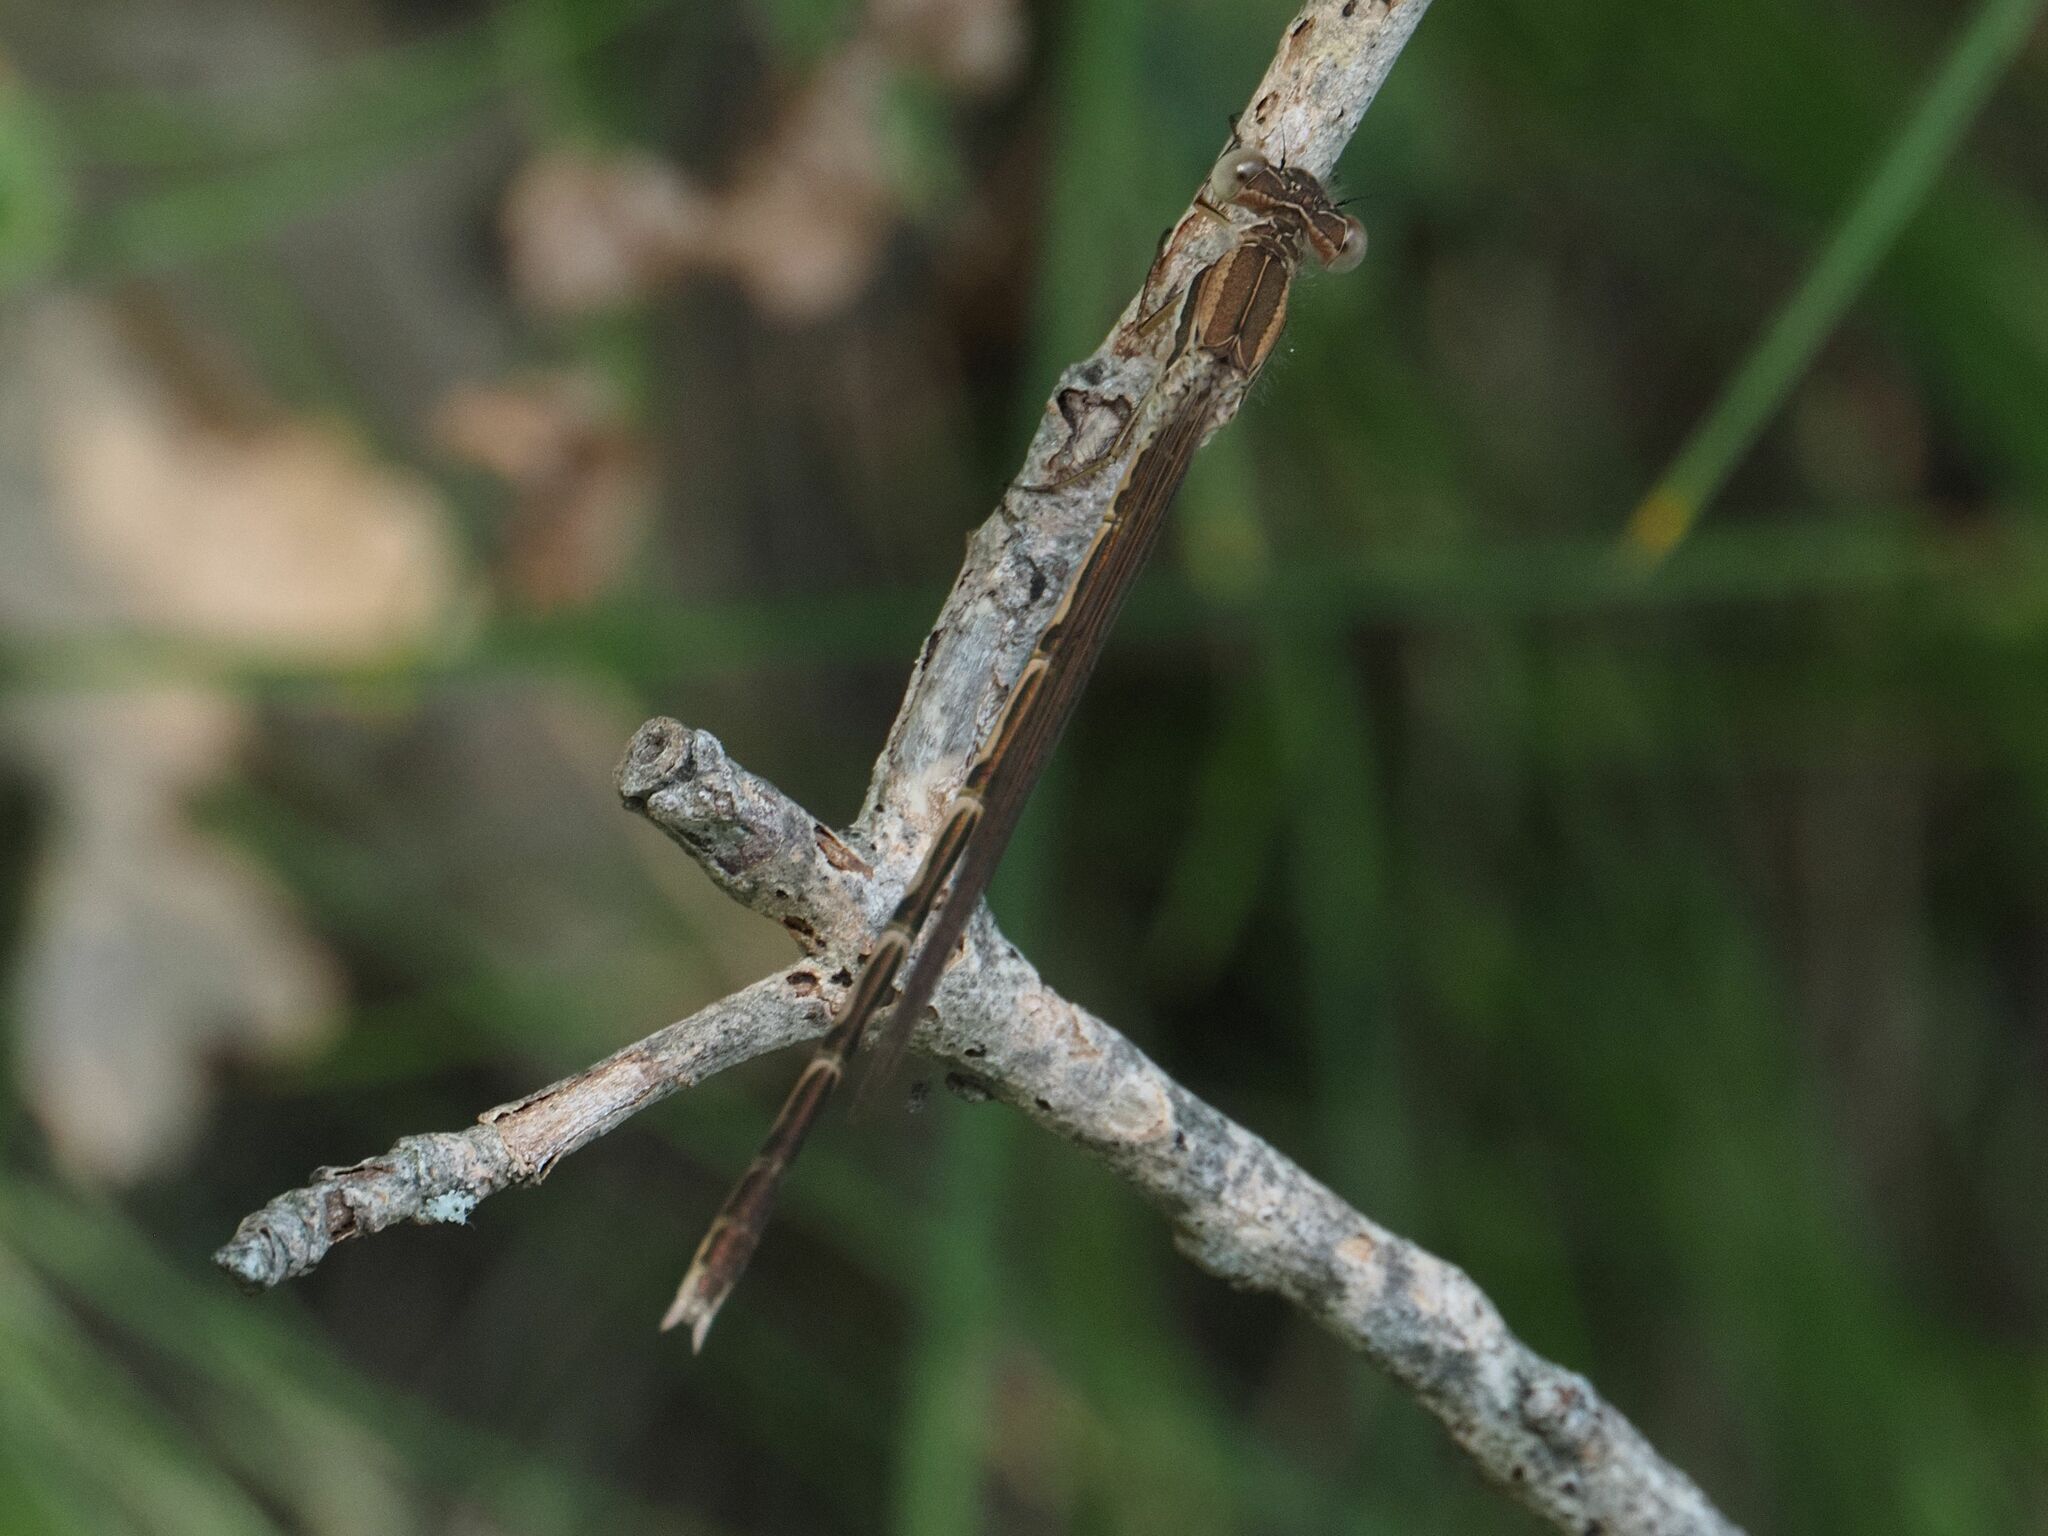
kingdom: Animalia
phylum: Arthropoda
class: Insecta
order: Odonata
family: Lestidae
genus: Sympecma
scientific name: Sympecma fusca
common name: Common winter damsel
